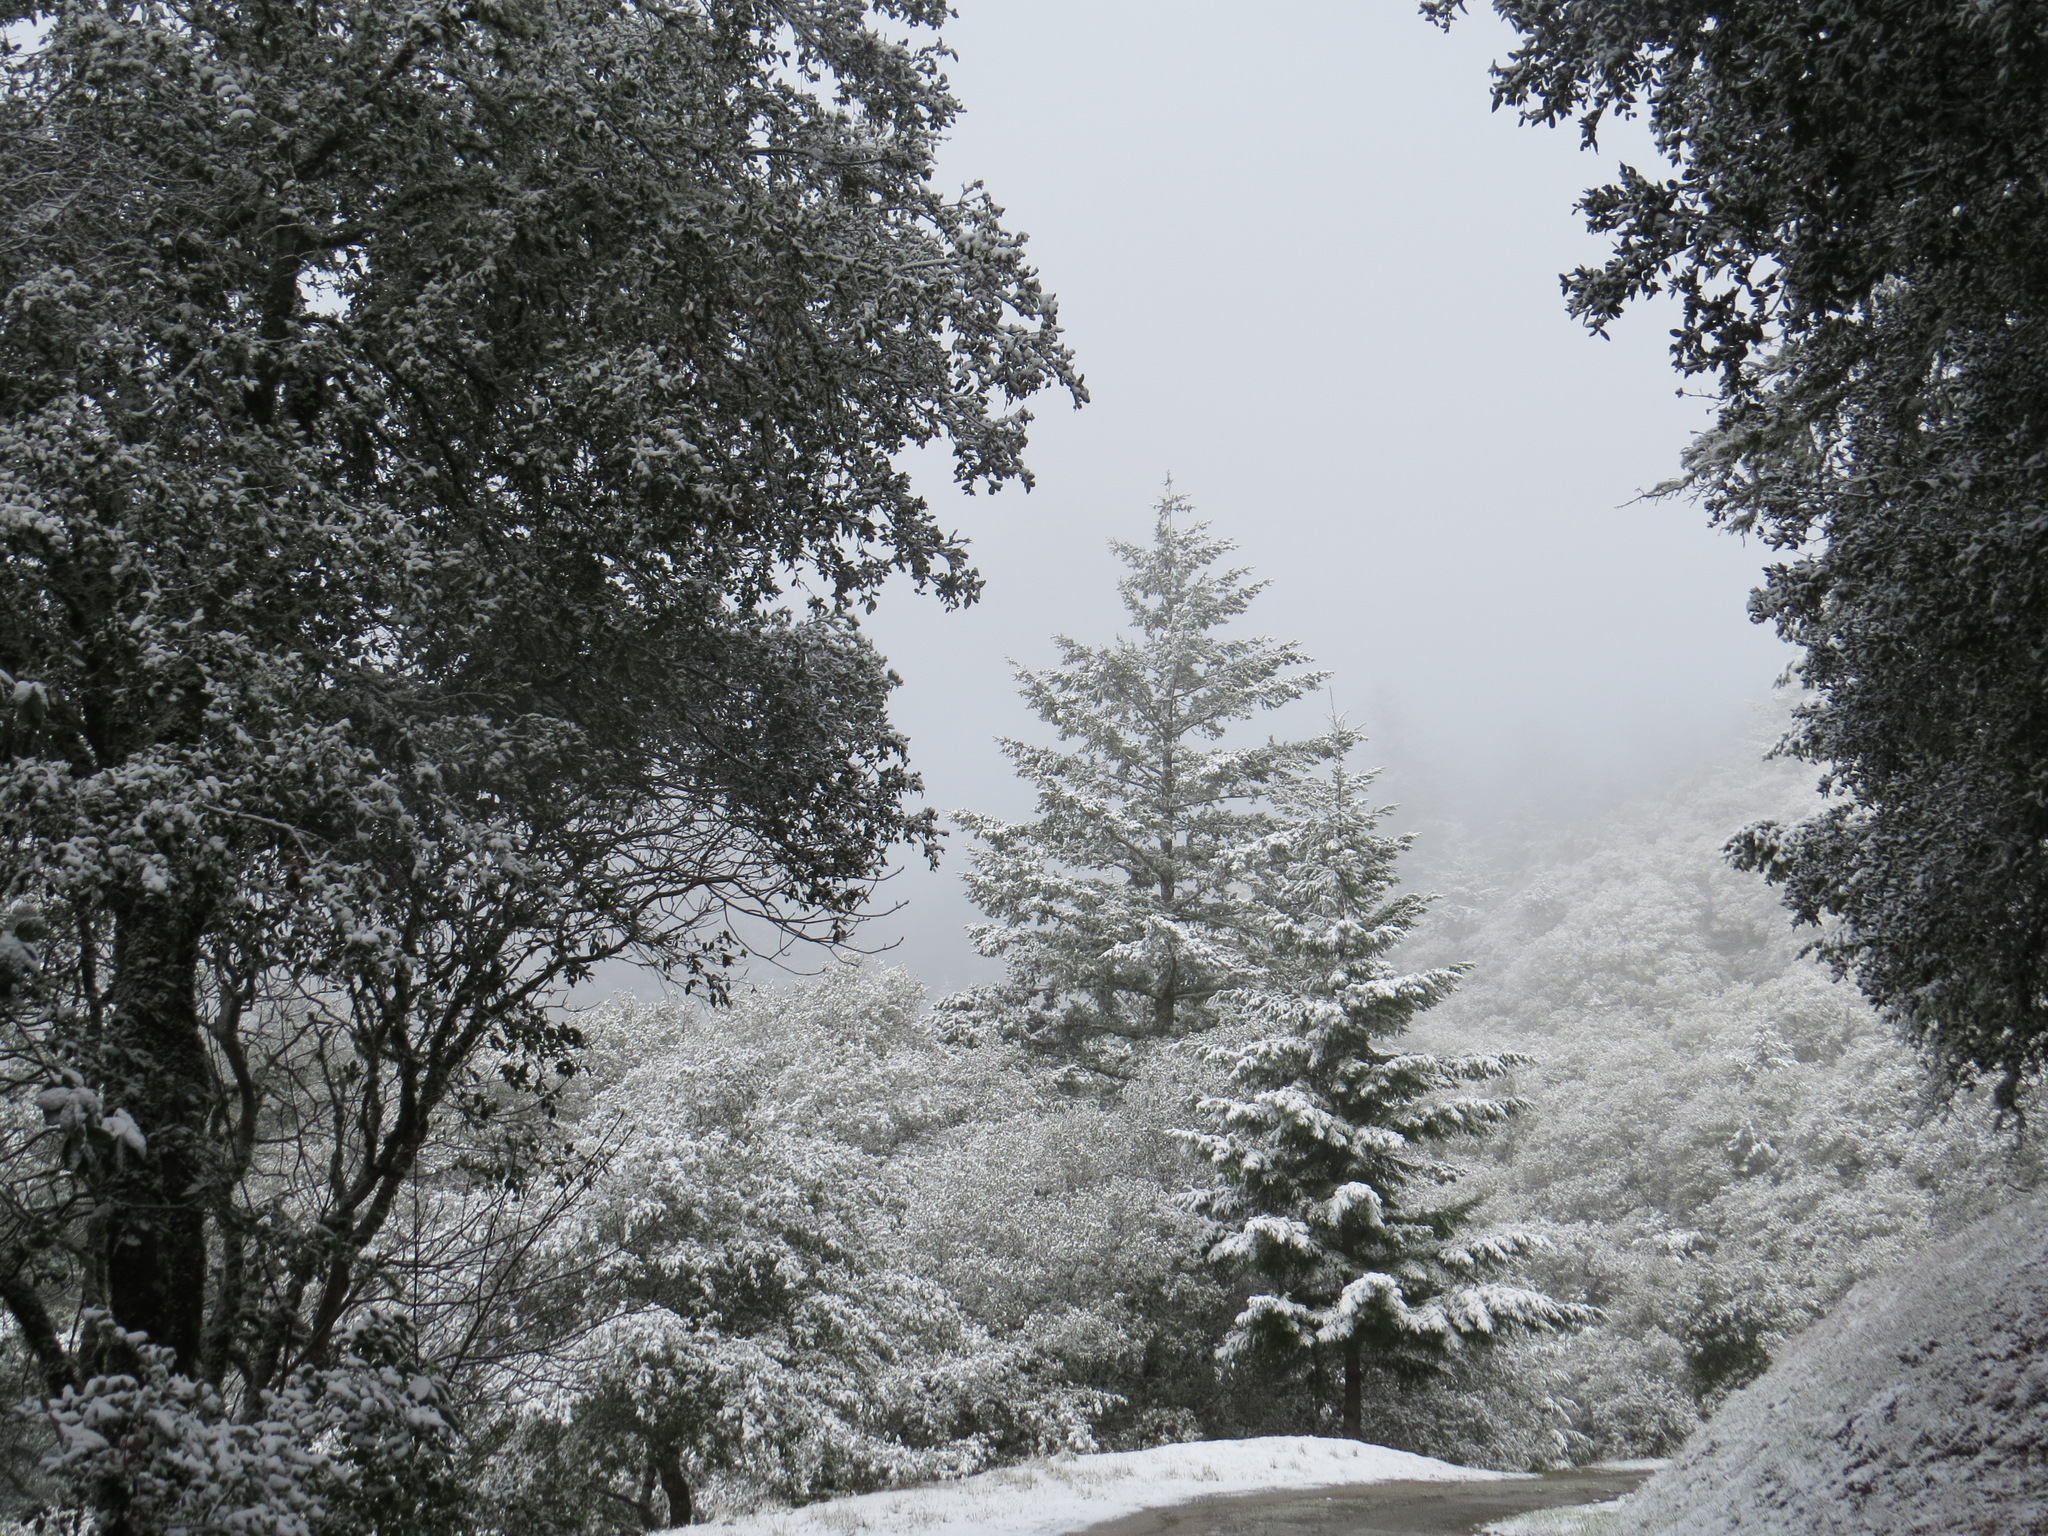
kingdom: Animalia
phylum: Chordata
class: Mammalia
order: Artiodactyla
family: Cervidae
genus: Odocoileus
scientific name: Odocoileus hemionus
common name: Mule deer
